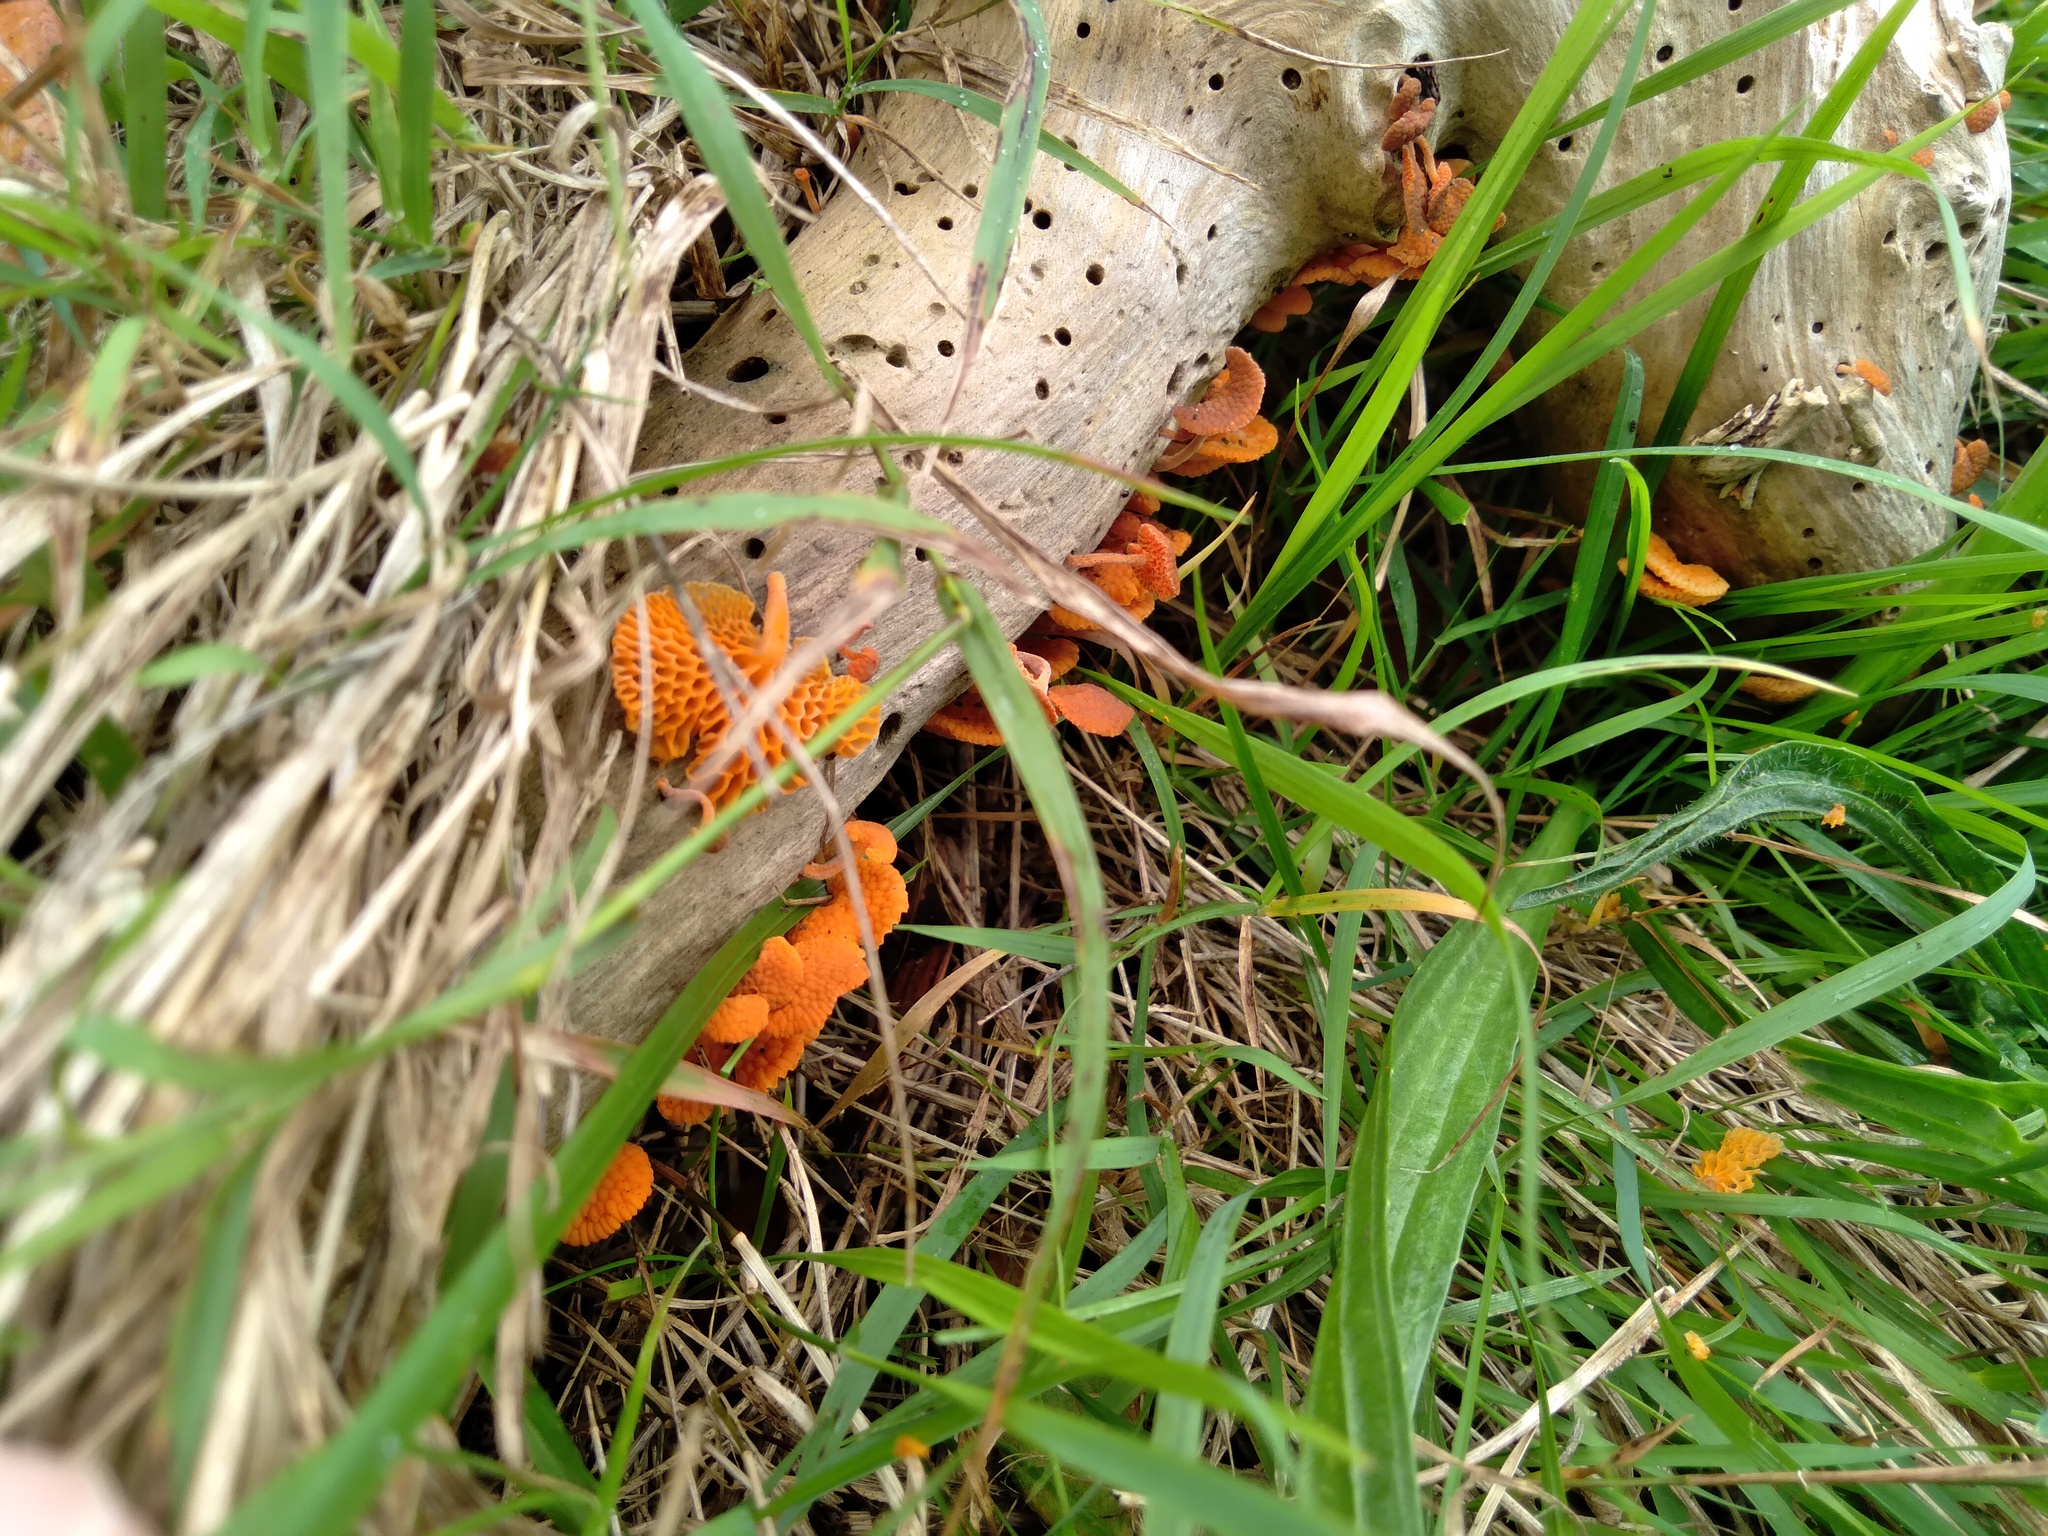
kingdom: Fungi
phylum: Basidiomycota
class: Agaricomycetes
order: Agaricales
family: Mycenaceae
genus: Favolaschia
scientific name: Favolaschia claudopus
